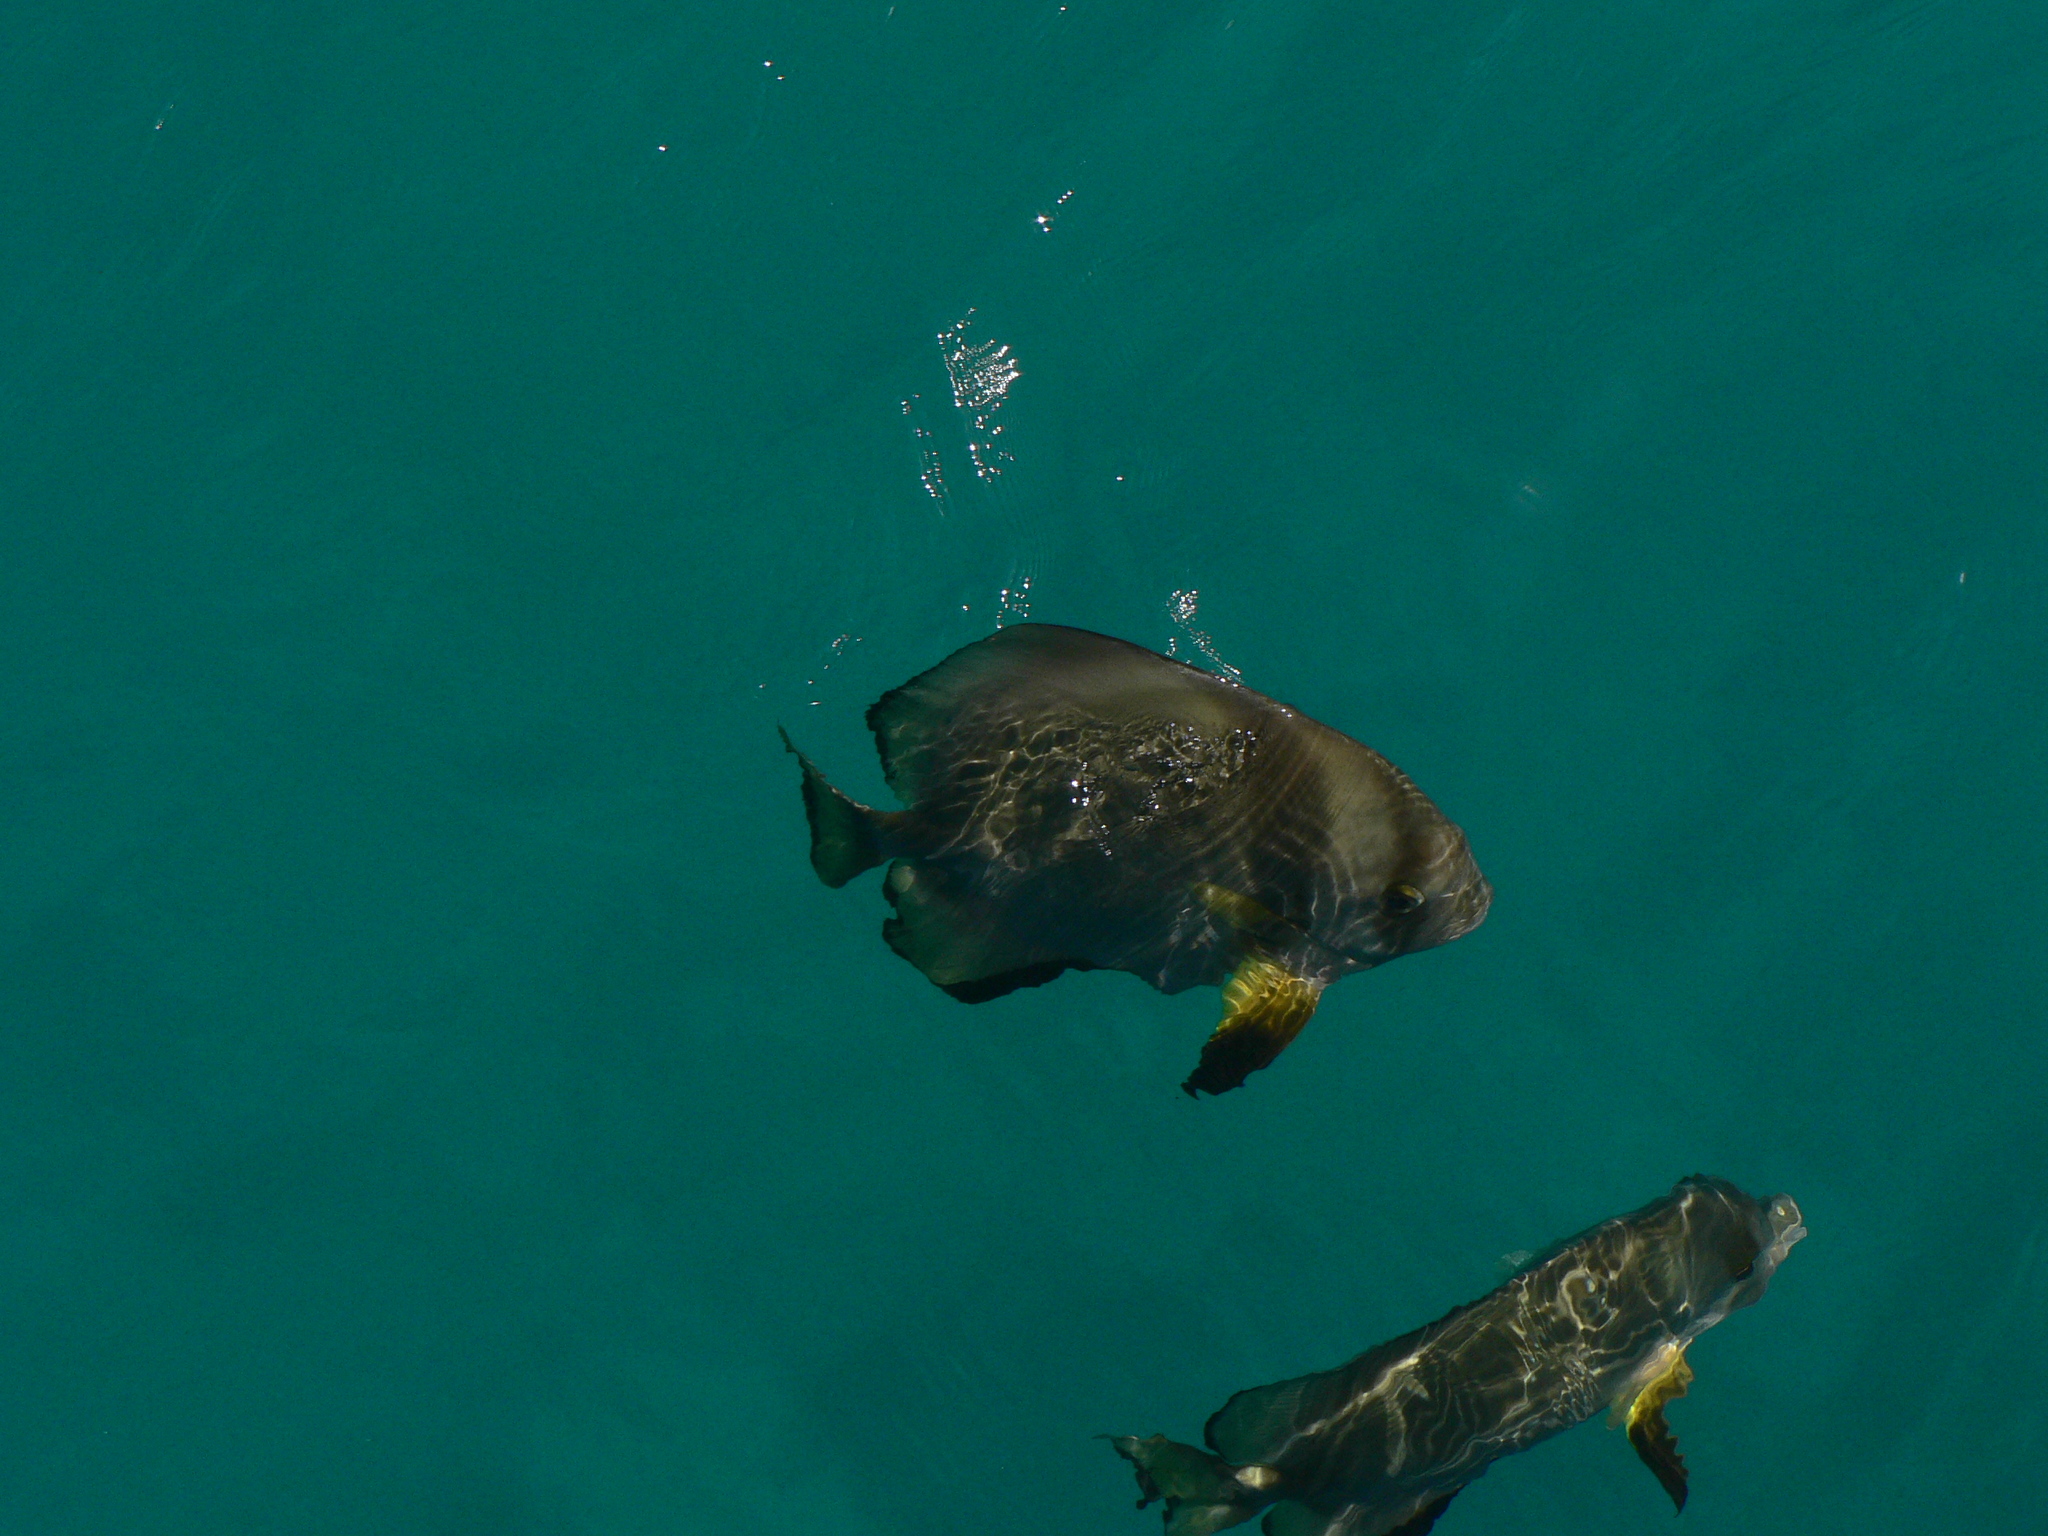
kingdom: Animalia
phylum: Chordata
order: Perciformes
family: Ephippidae
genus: Platax
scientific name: Platax teira
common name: Longfin baitfish
